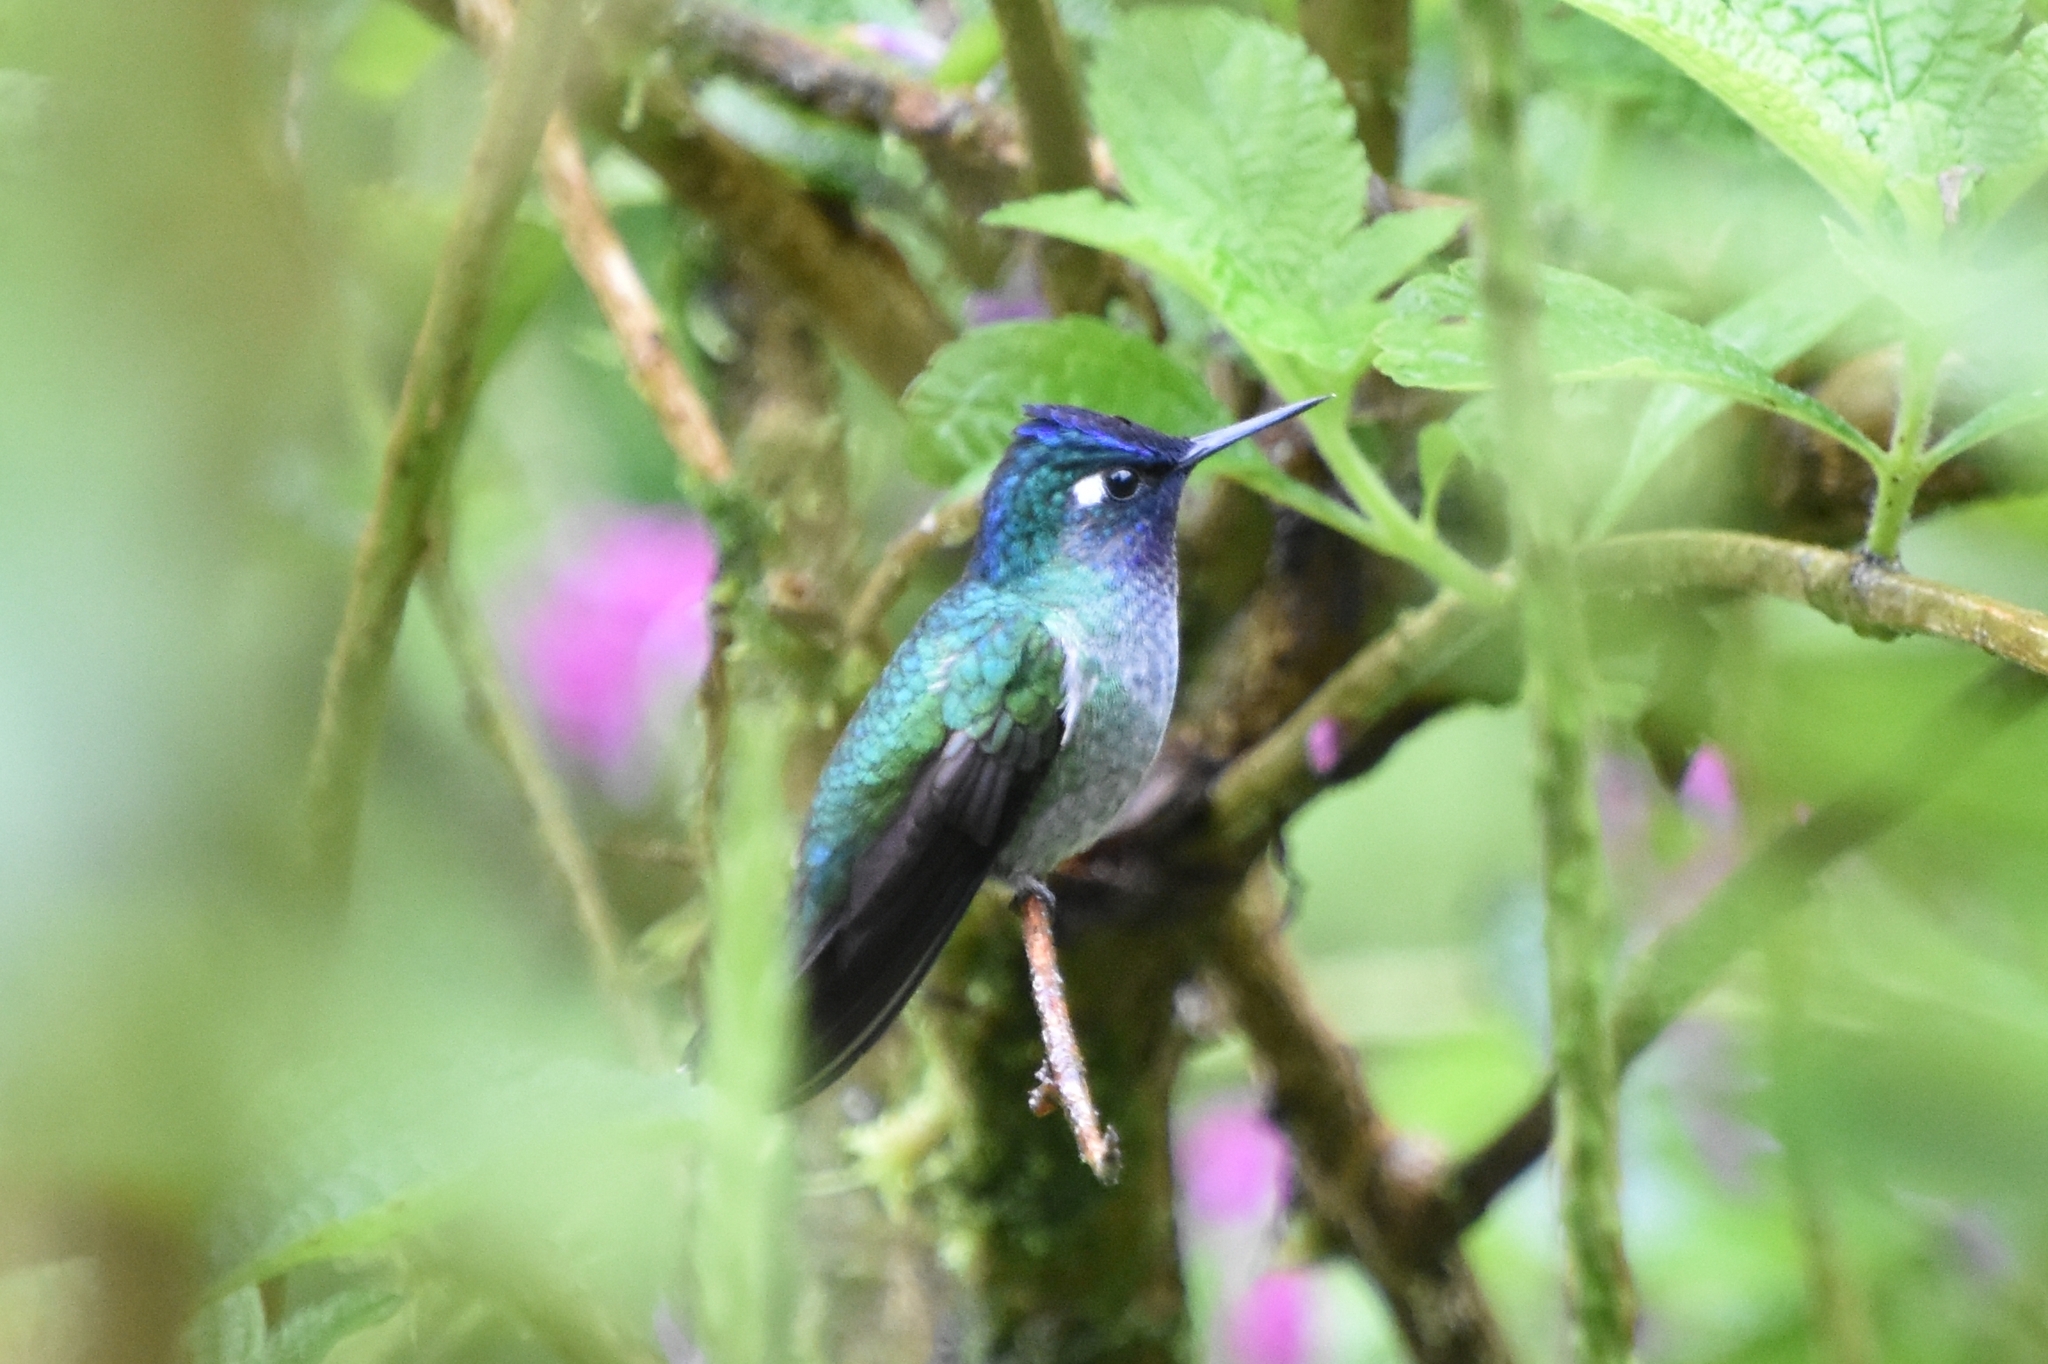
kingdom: Animalia
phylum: Chordata
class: Aves
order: Apodiformes
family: Trochilidae
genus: Klais
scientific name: Klais guimeti
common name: Violet-headed hummingbird
